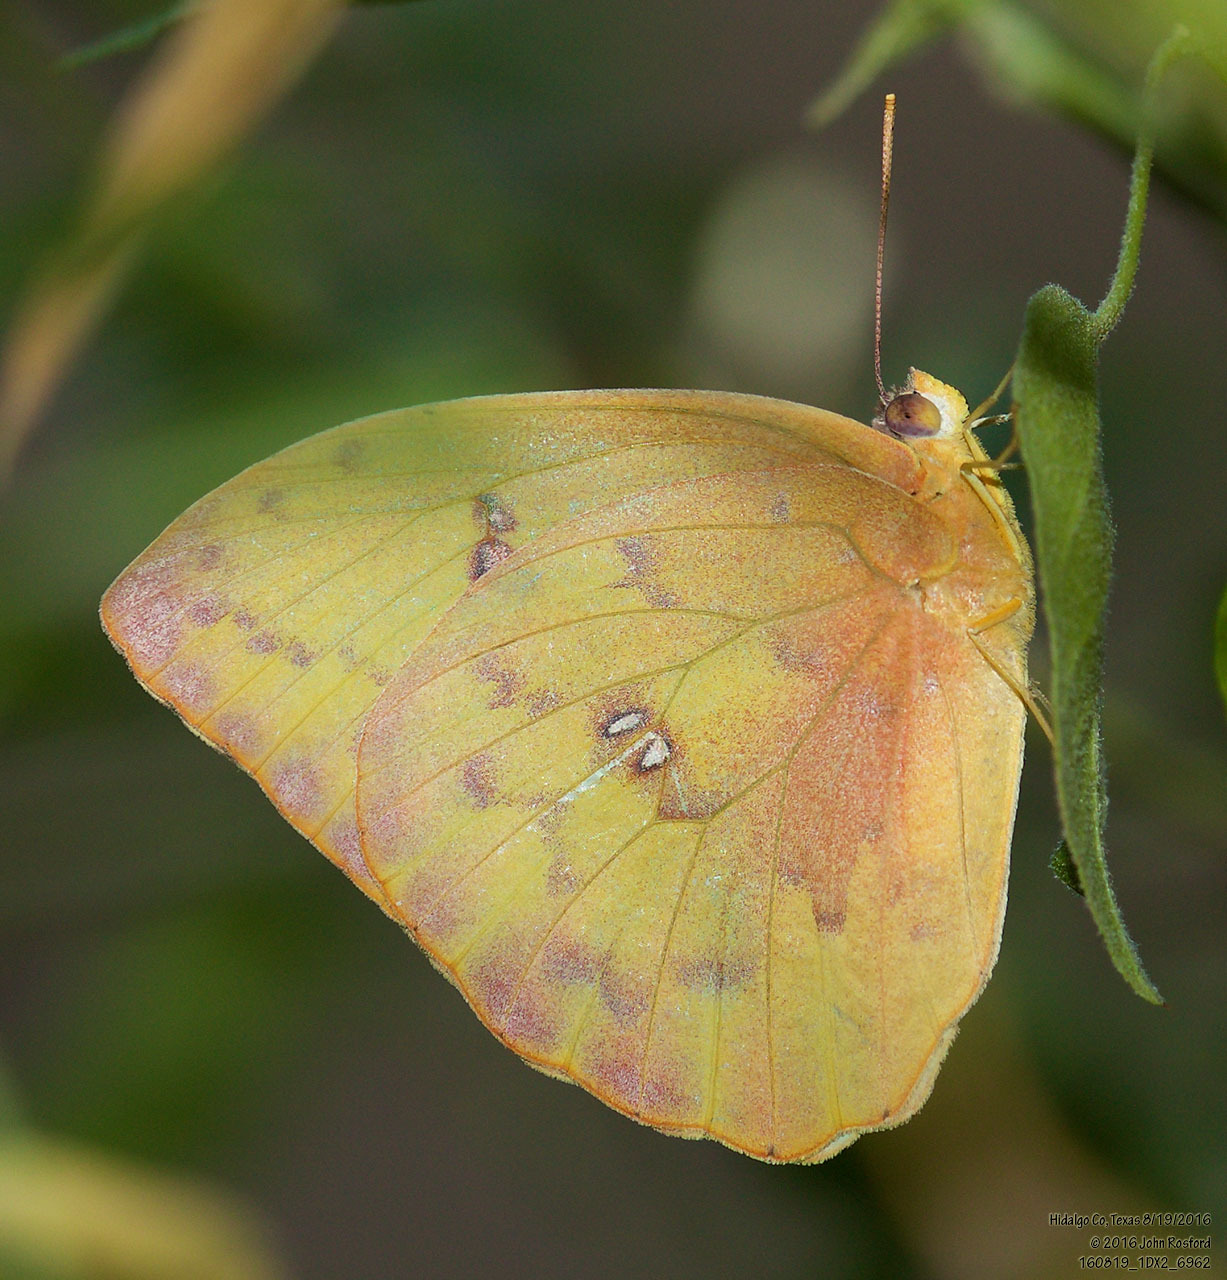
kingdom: Animalia
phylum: Arthropoda
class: Insecta
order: Lepidoptera
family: Pieridae
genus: Phoebis
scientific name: Phoebis philea
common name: Orange-barred giant sulphur
